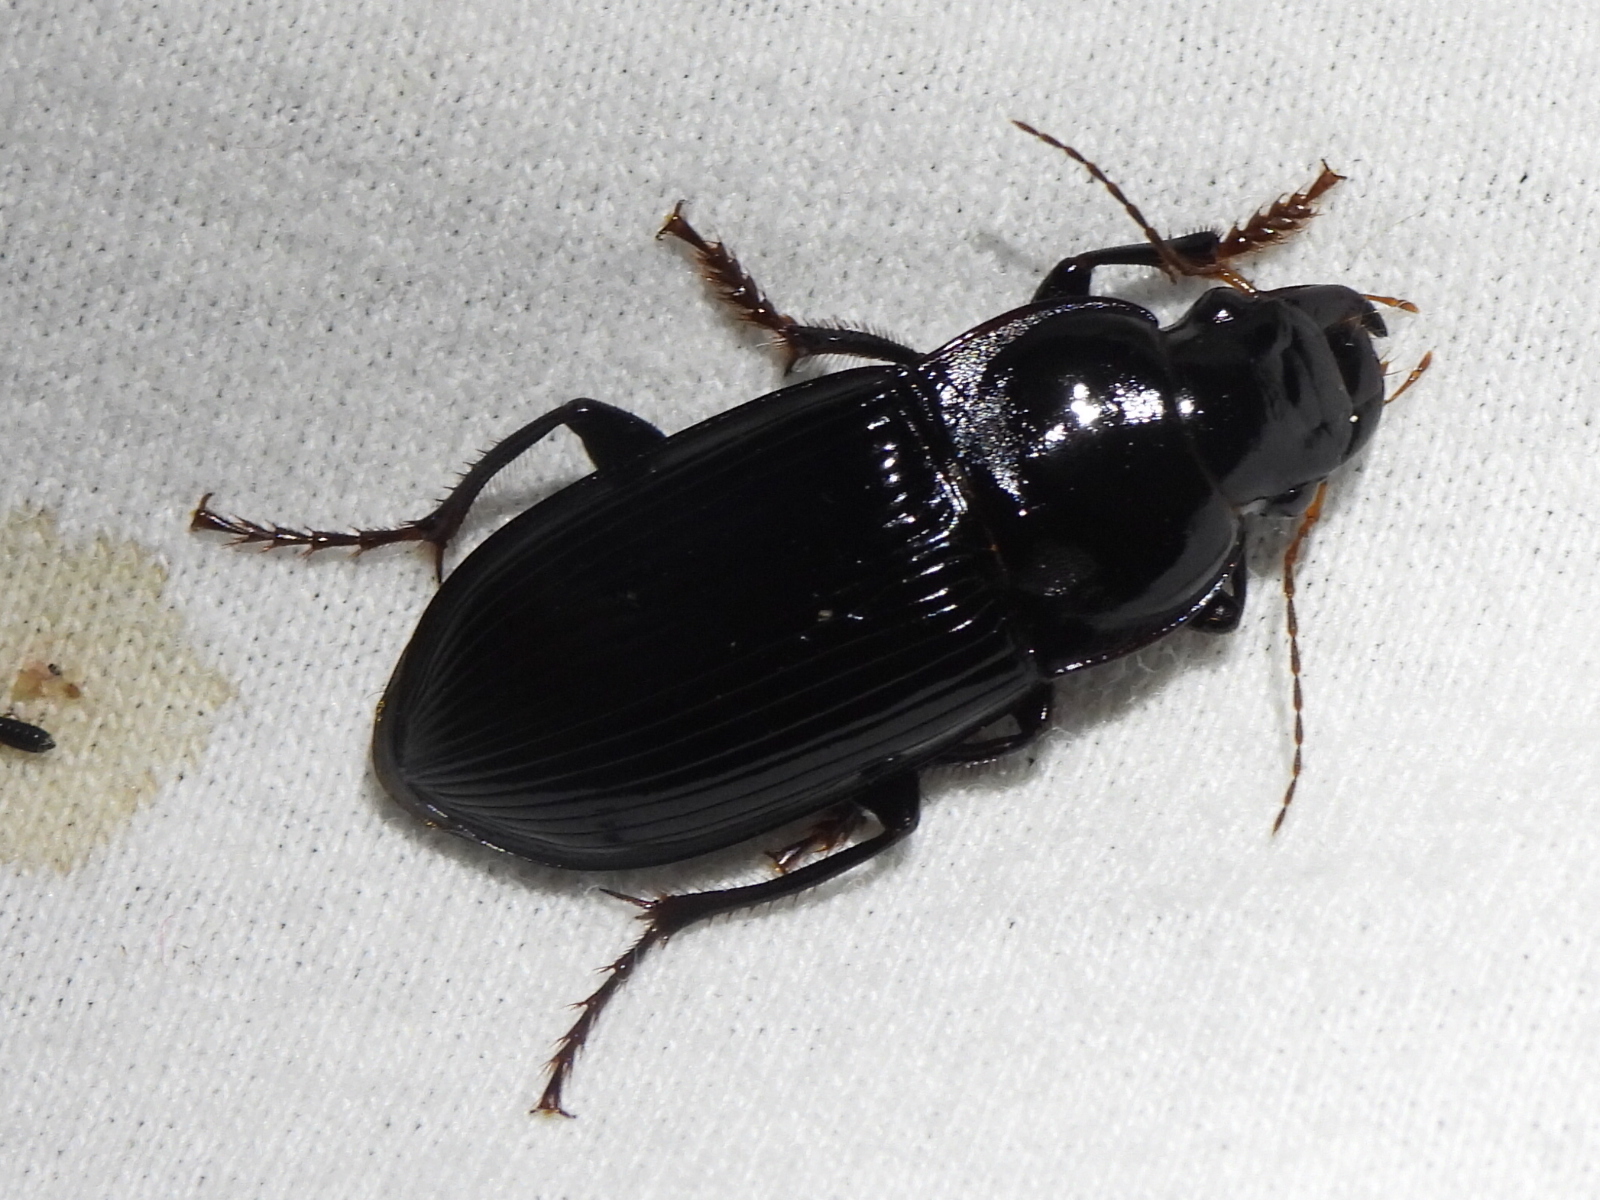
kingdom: Animalia
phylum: Arthropoda
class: Insecta
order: Coleoptera
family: Carabidae
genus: Harpalus
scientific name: Harpalus caliginosus
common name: Murky ground beetle
